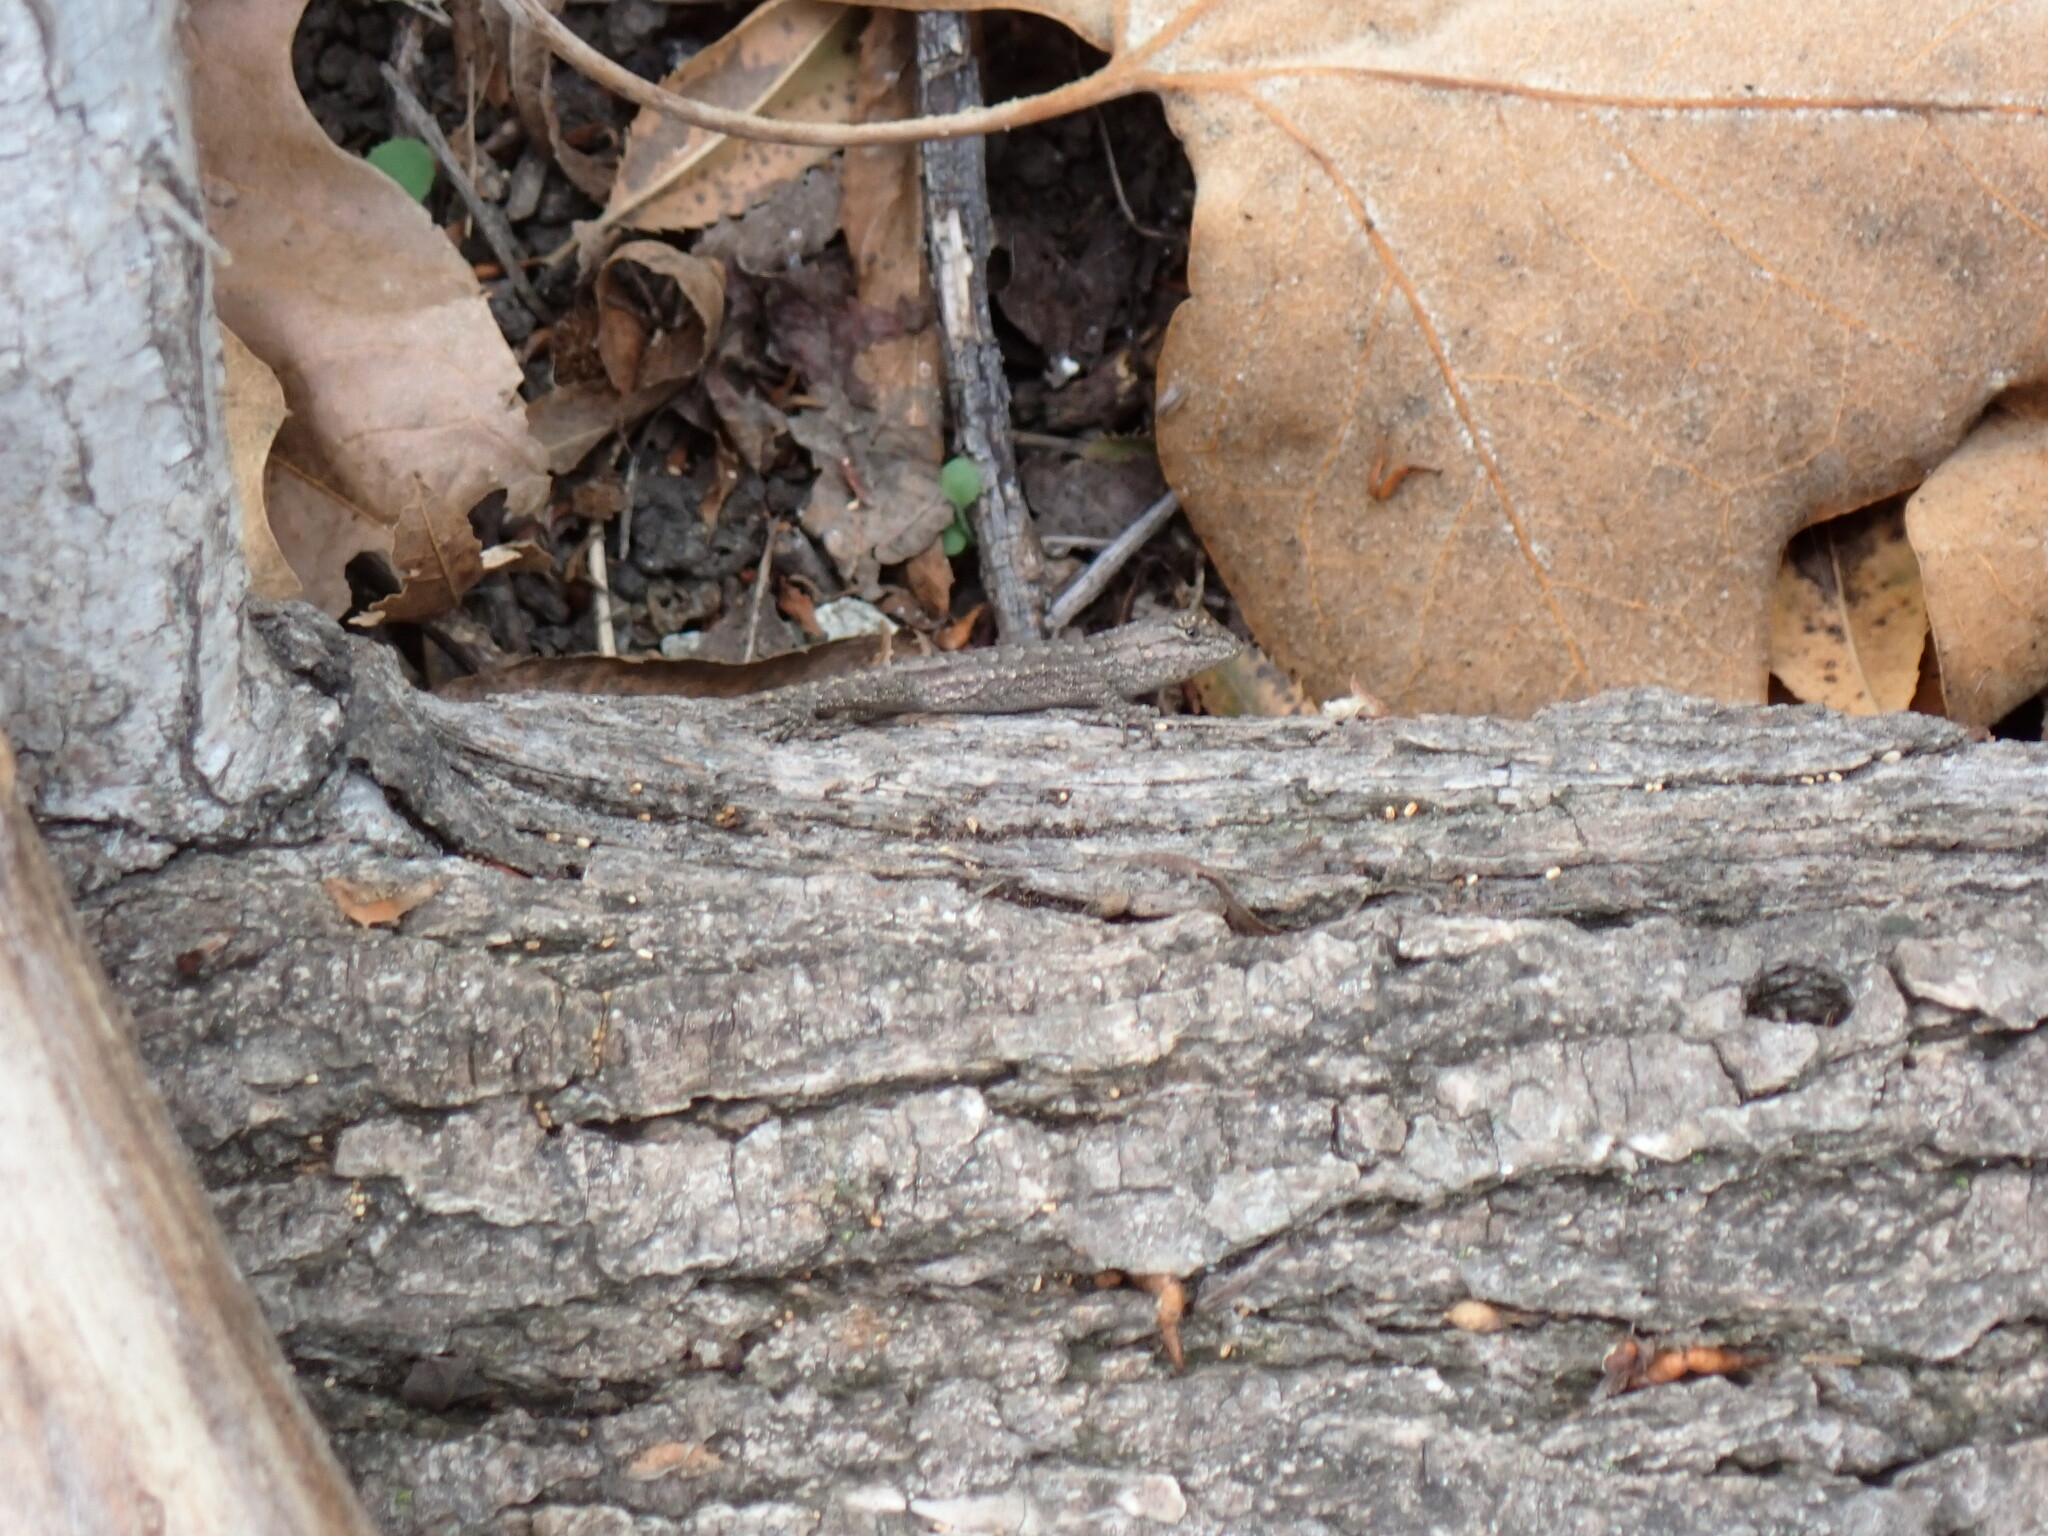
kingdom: Animalia
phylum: Chordata
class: Squamata
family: Phrynosomatidae
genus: Sceloporus
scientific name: Sceloporus occidentalis
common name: Western fence lizard
